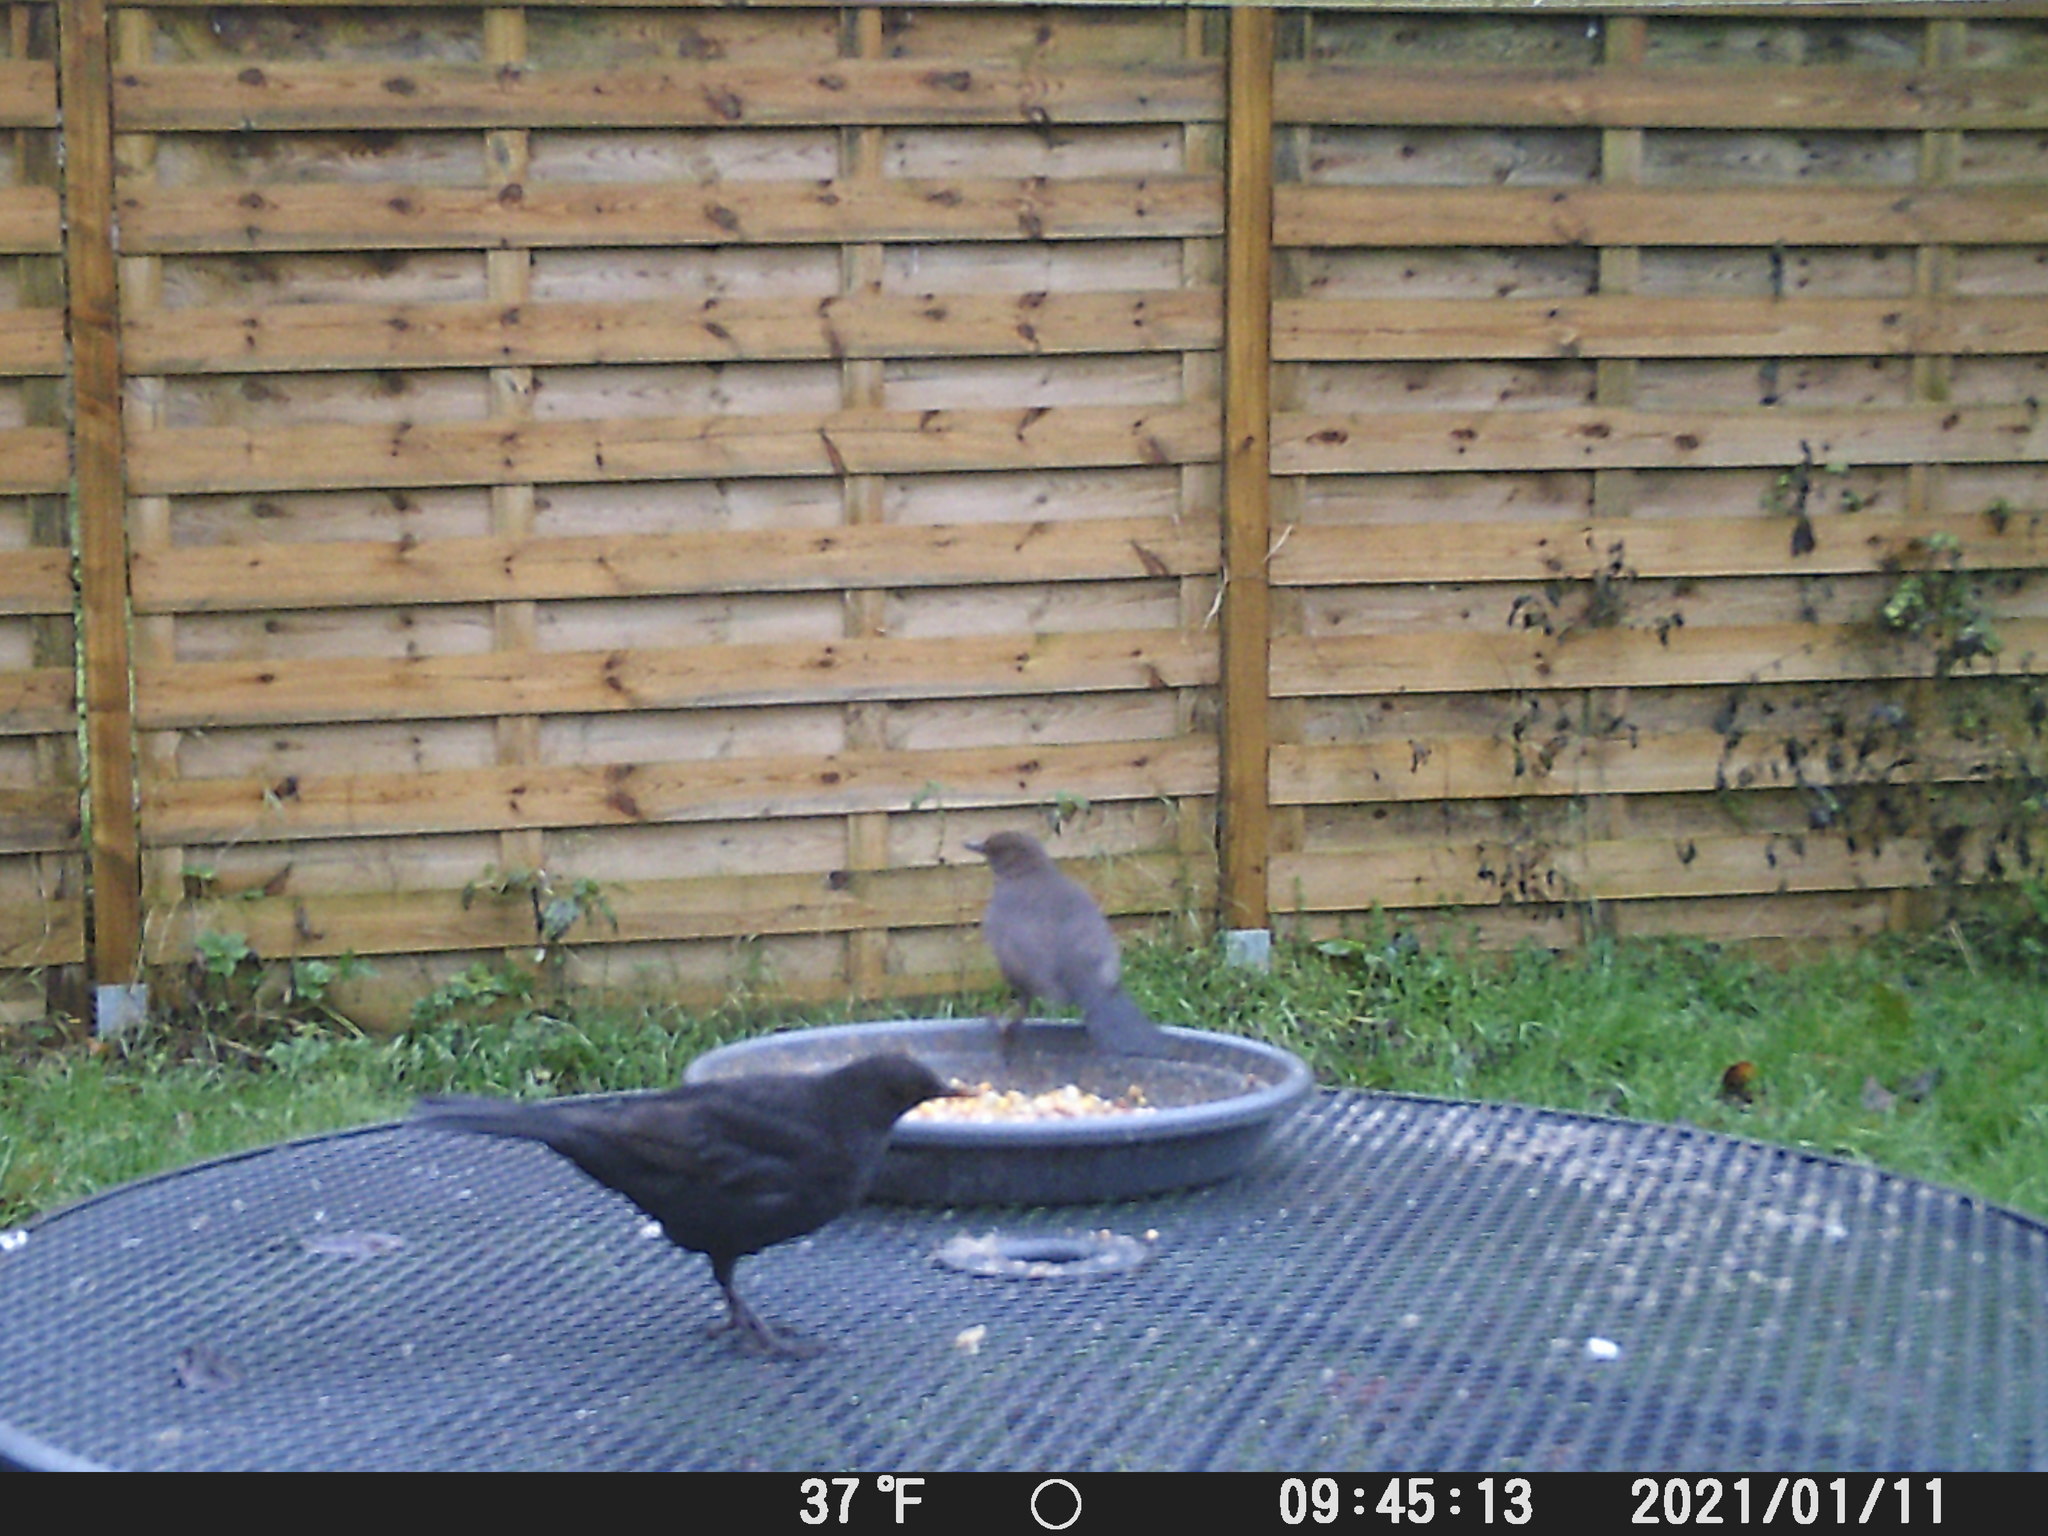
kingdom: Animalia
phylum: Chordata
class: Aves
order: Passeriformes
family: Turdidae
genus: Turdus
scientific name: Turdus merula
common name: Common blackbird
